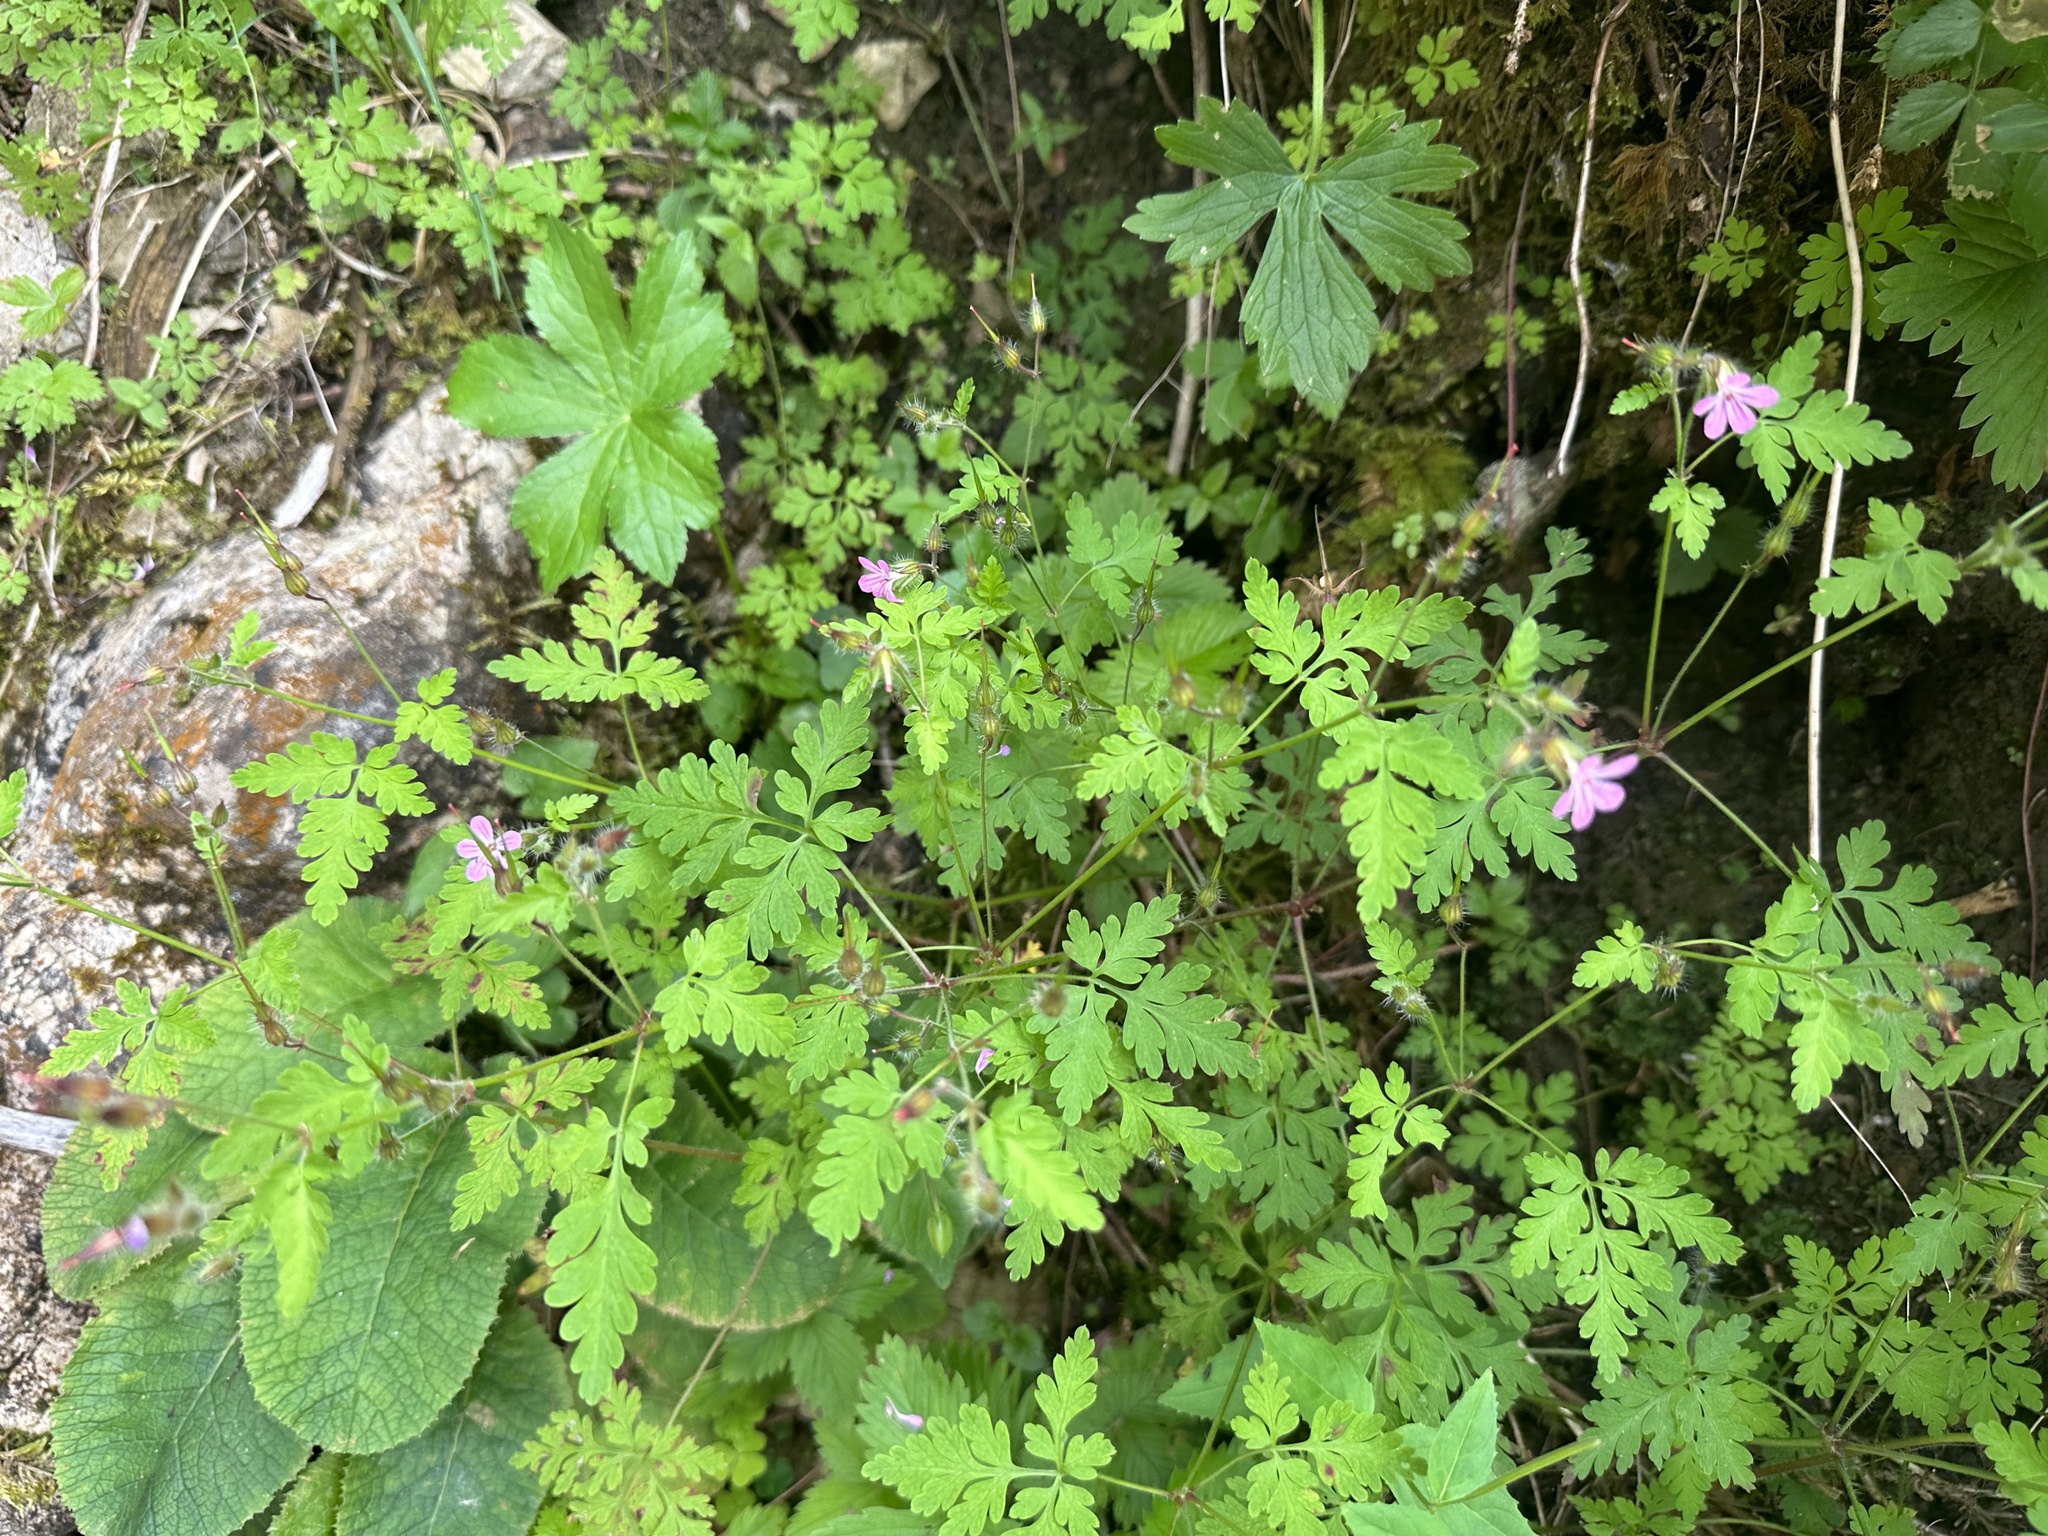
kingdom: Plantae
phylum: Tracheophyta
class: Magnoliopsida
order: Geraniales
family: Geraniaceae
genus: Geranium
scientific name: Geranium robertianum
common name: Herb-robert
